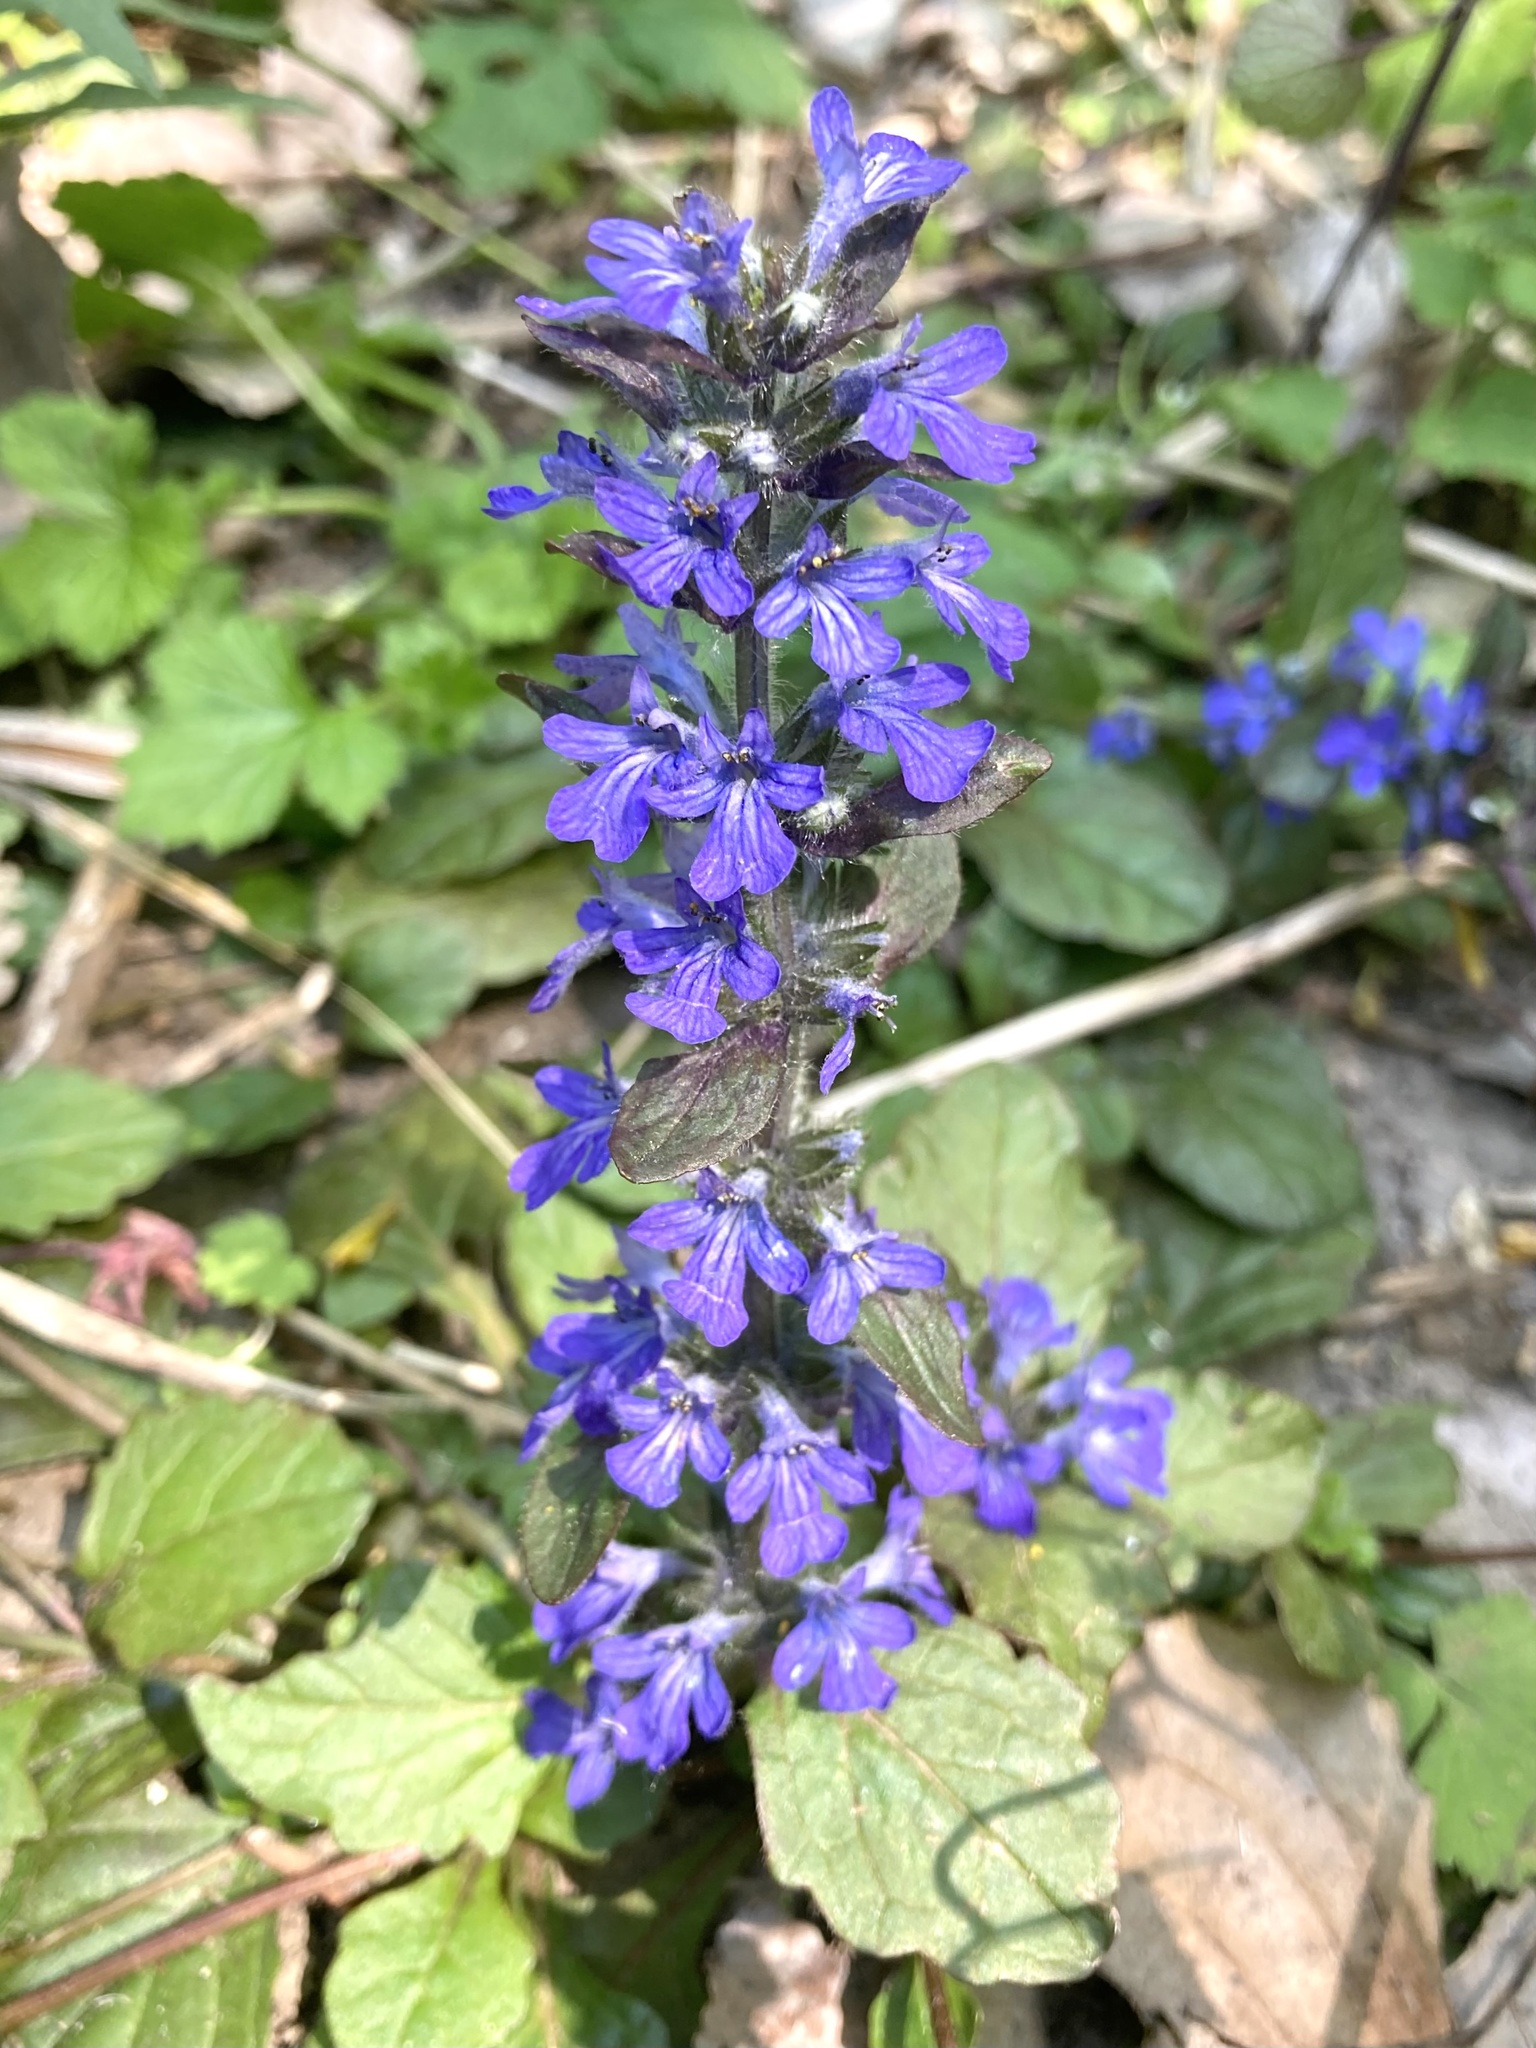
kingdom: Plantae
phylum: Tracheophyta
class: Magnoliopsida
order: Lamiales
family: Lamiaceae
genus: Ajuga
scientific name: Ajuga reptans
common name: Bugle
